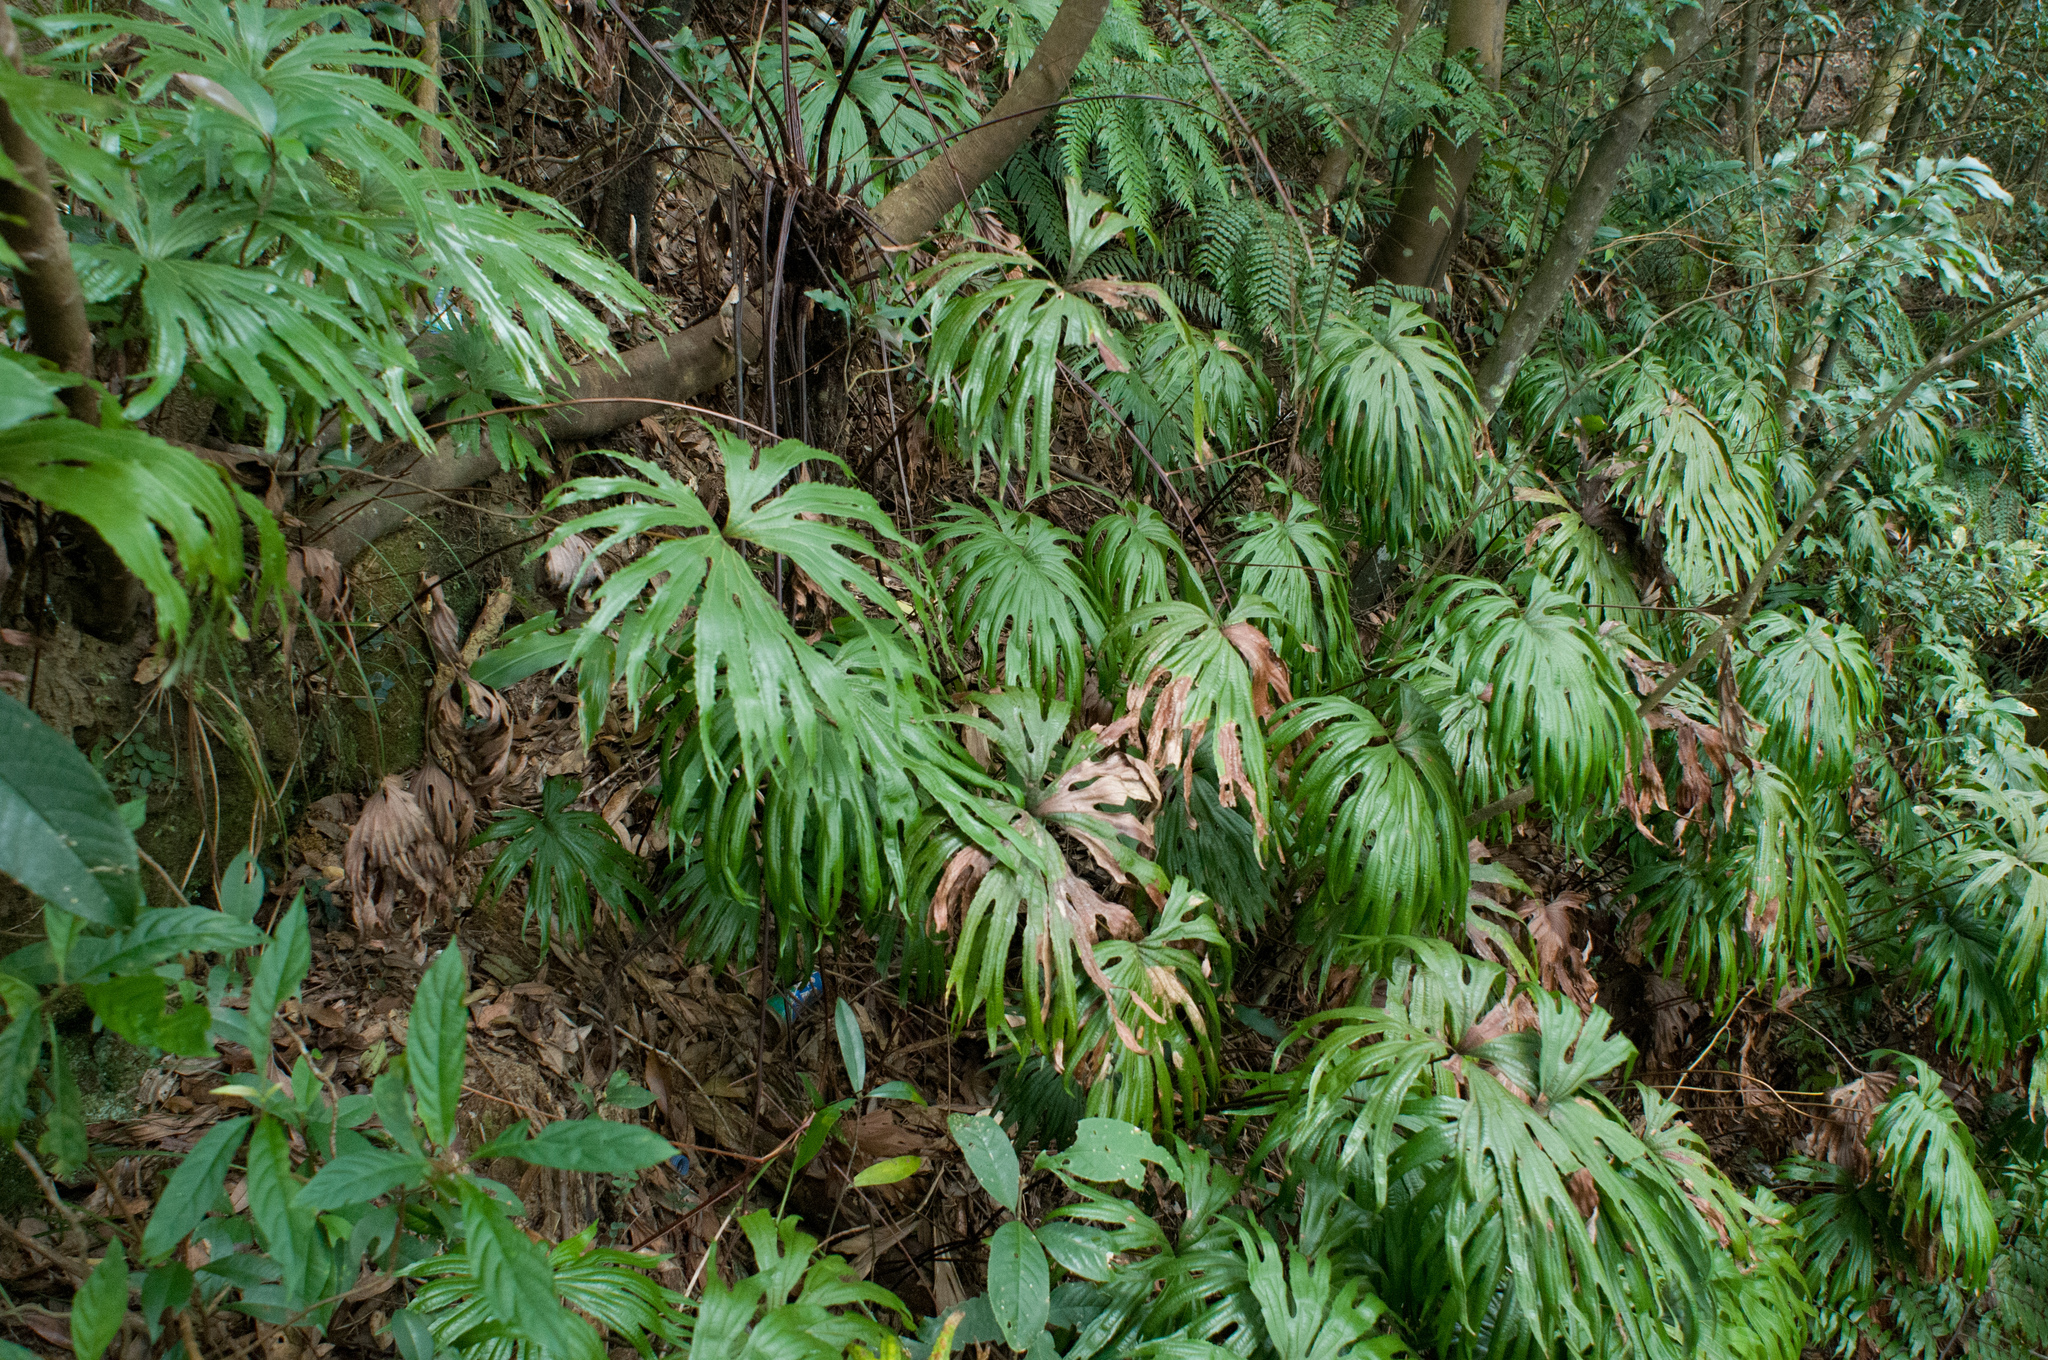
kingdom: Plantae
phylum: Tracheophyta
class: Polypodiopsida
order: Gleicheniales
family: Dipteridaceae
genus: Dipteris
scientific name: Dipteris conjugata
